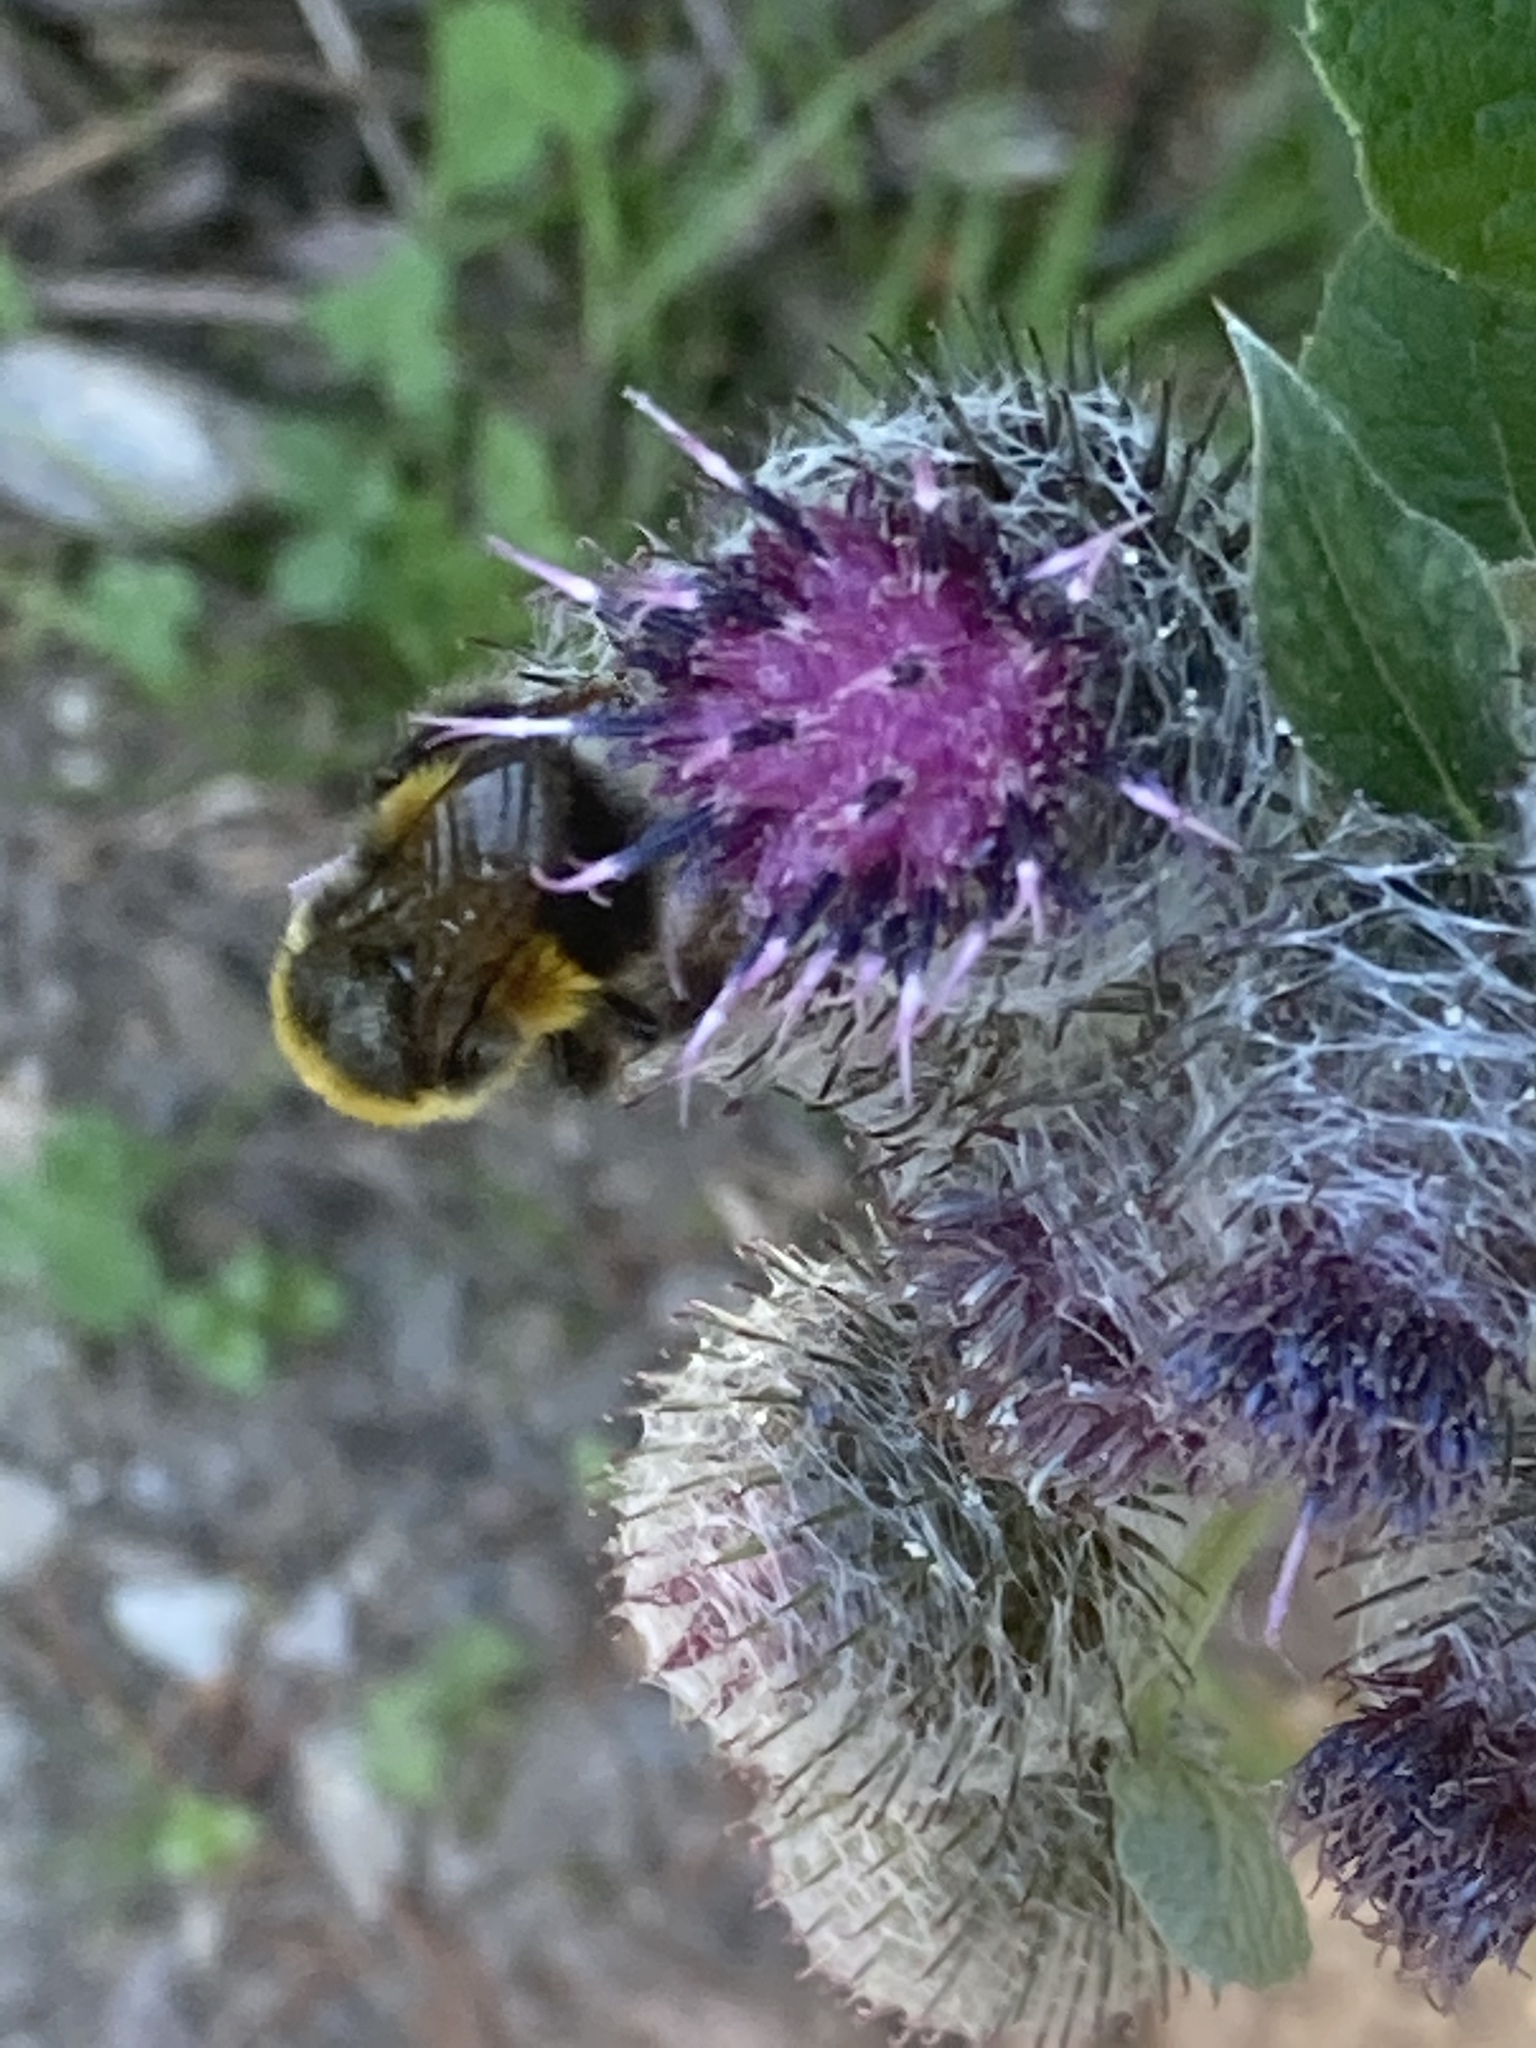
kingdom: Plantae
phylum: Tracheophyta
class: Magnoliopsida
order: Asterales
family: Asteraceae
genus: Arctium
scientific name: Arctium tomentosum
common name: Woolly burdock
